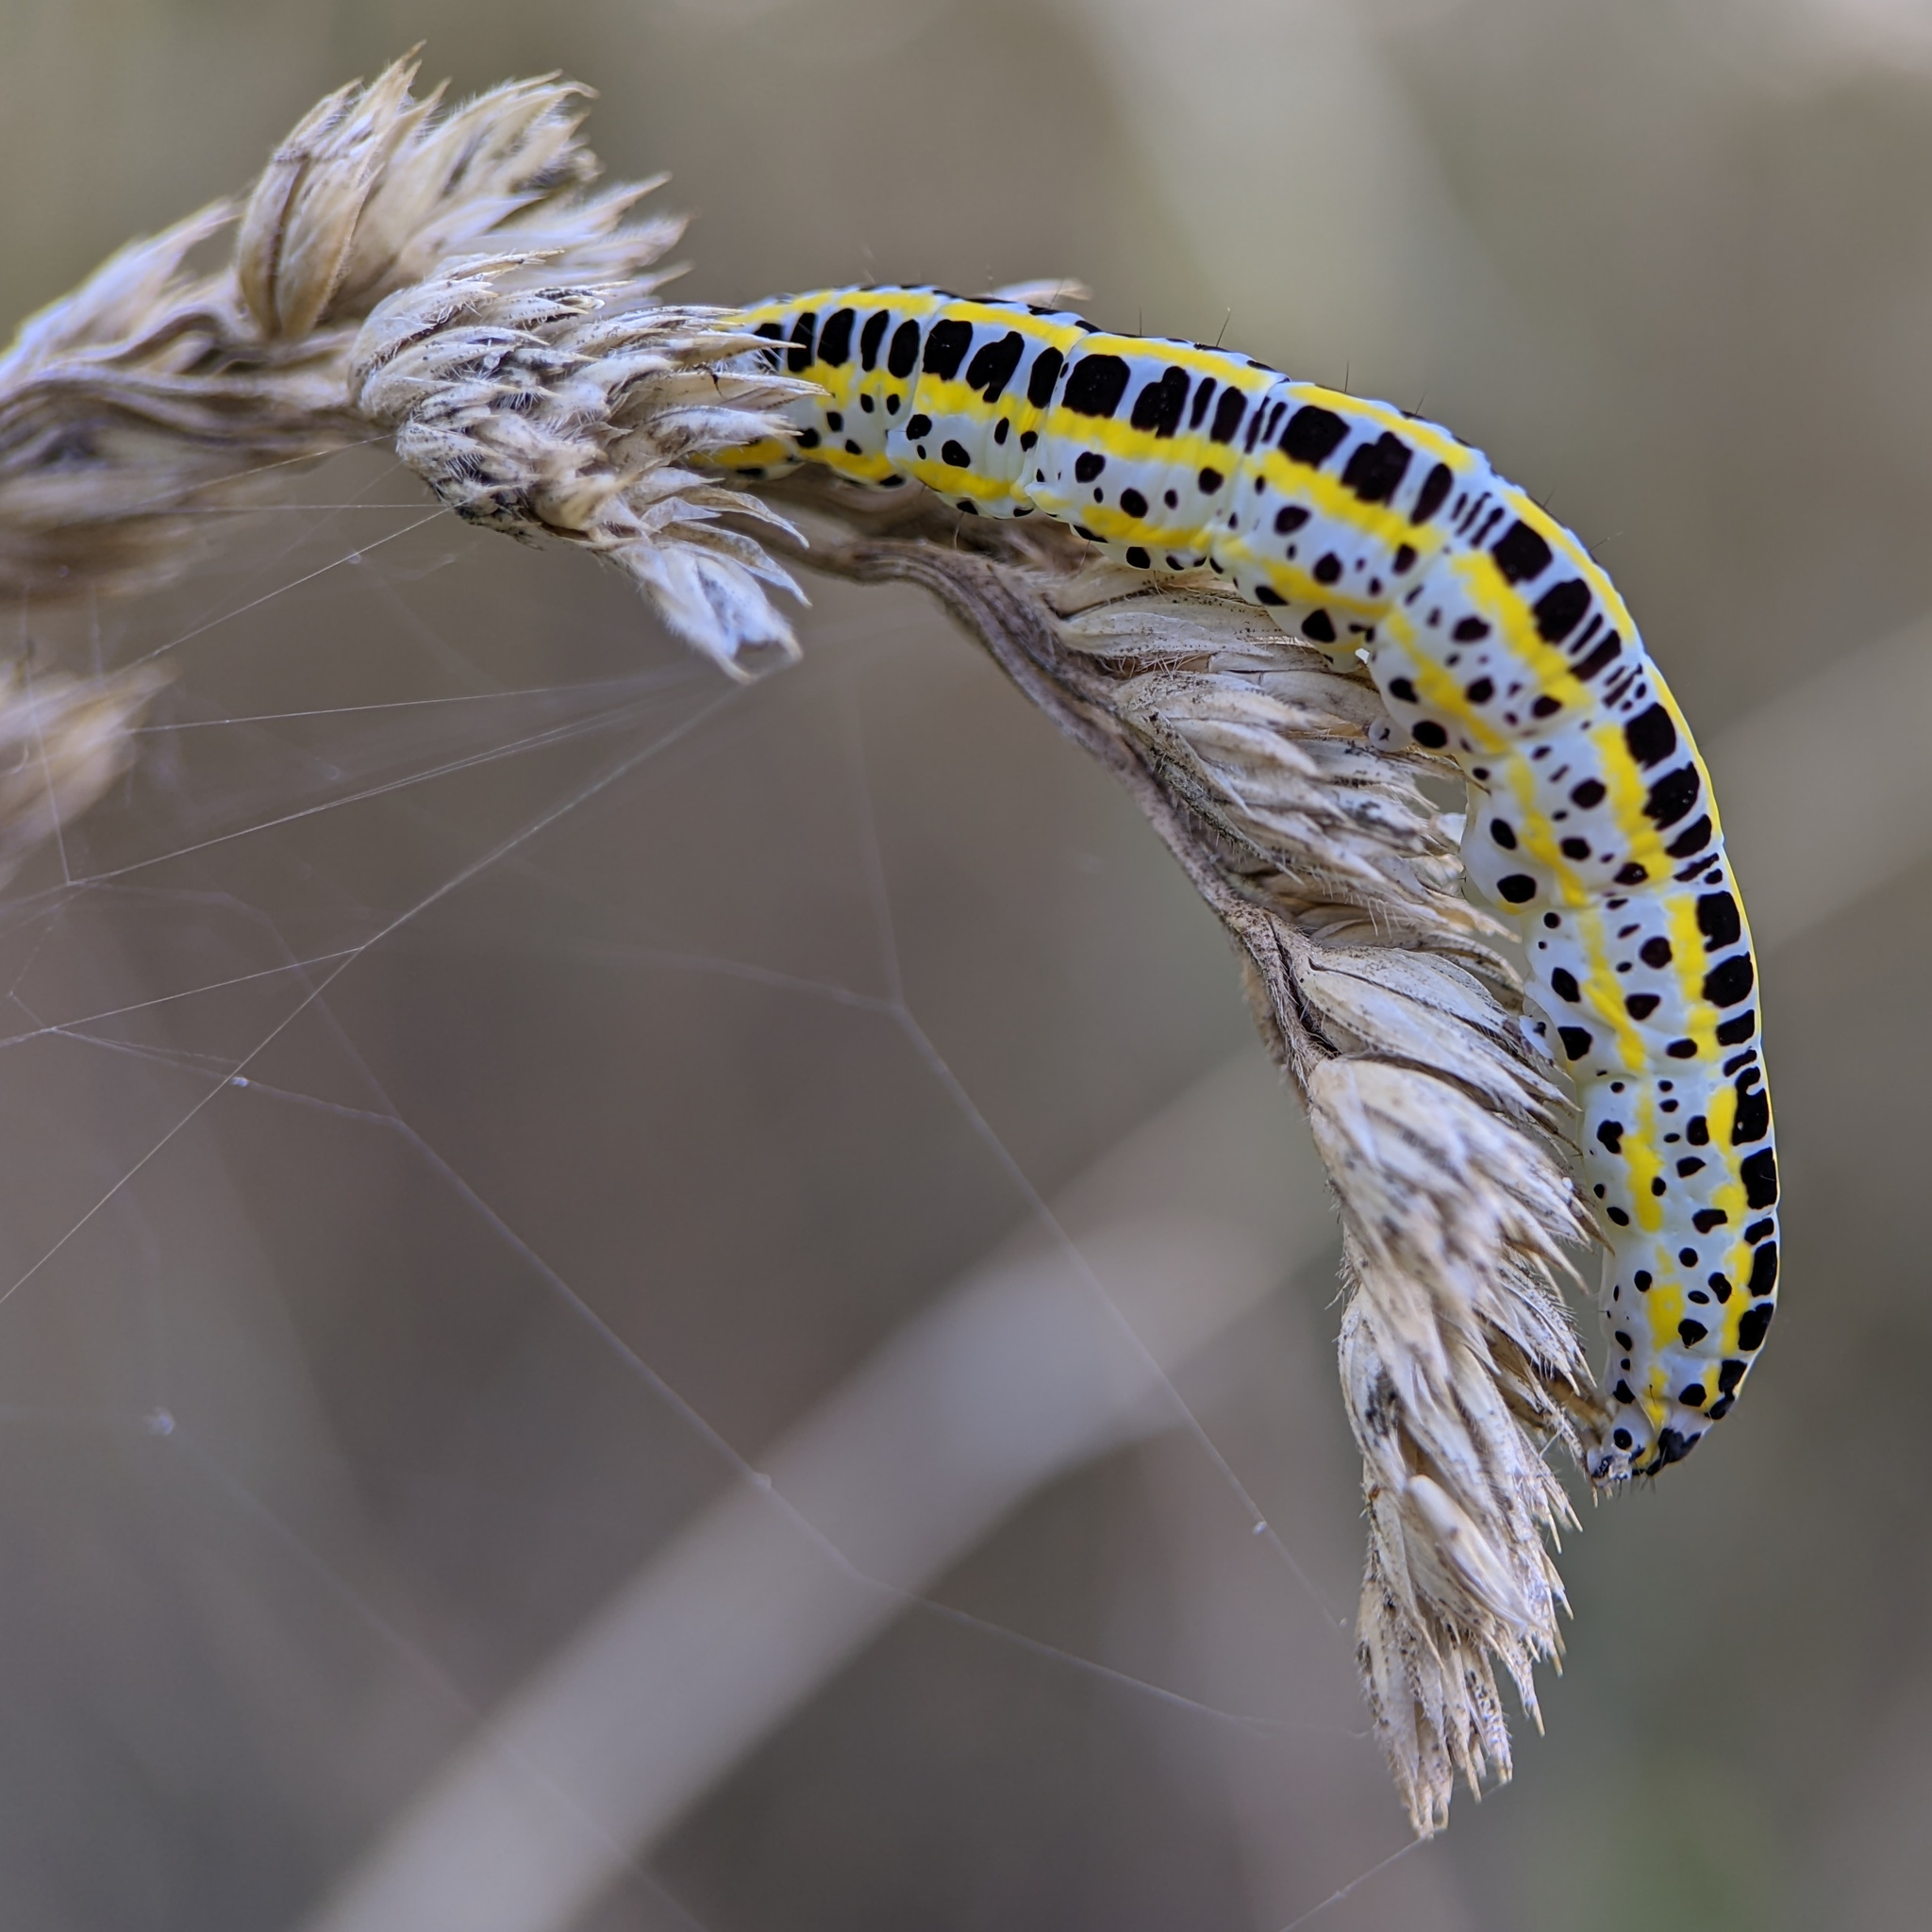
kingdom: Animalia
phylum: Arthropoda
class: Insecta
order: Lepidoptera
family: Noctuidae
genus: Calophasia
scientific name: Calophasia lunula
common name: Toadflax brocade
